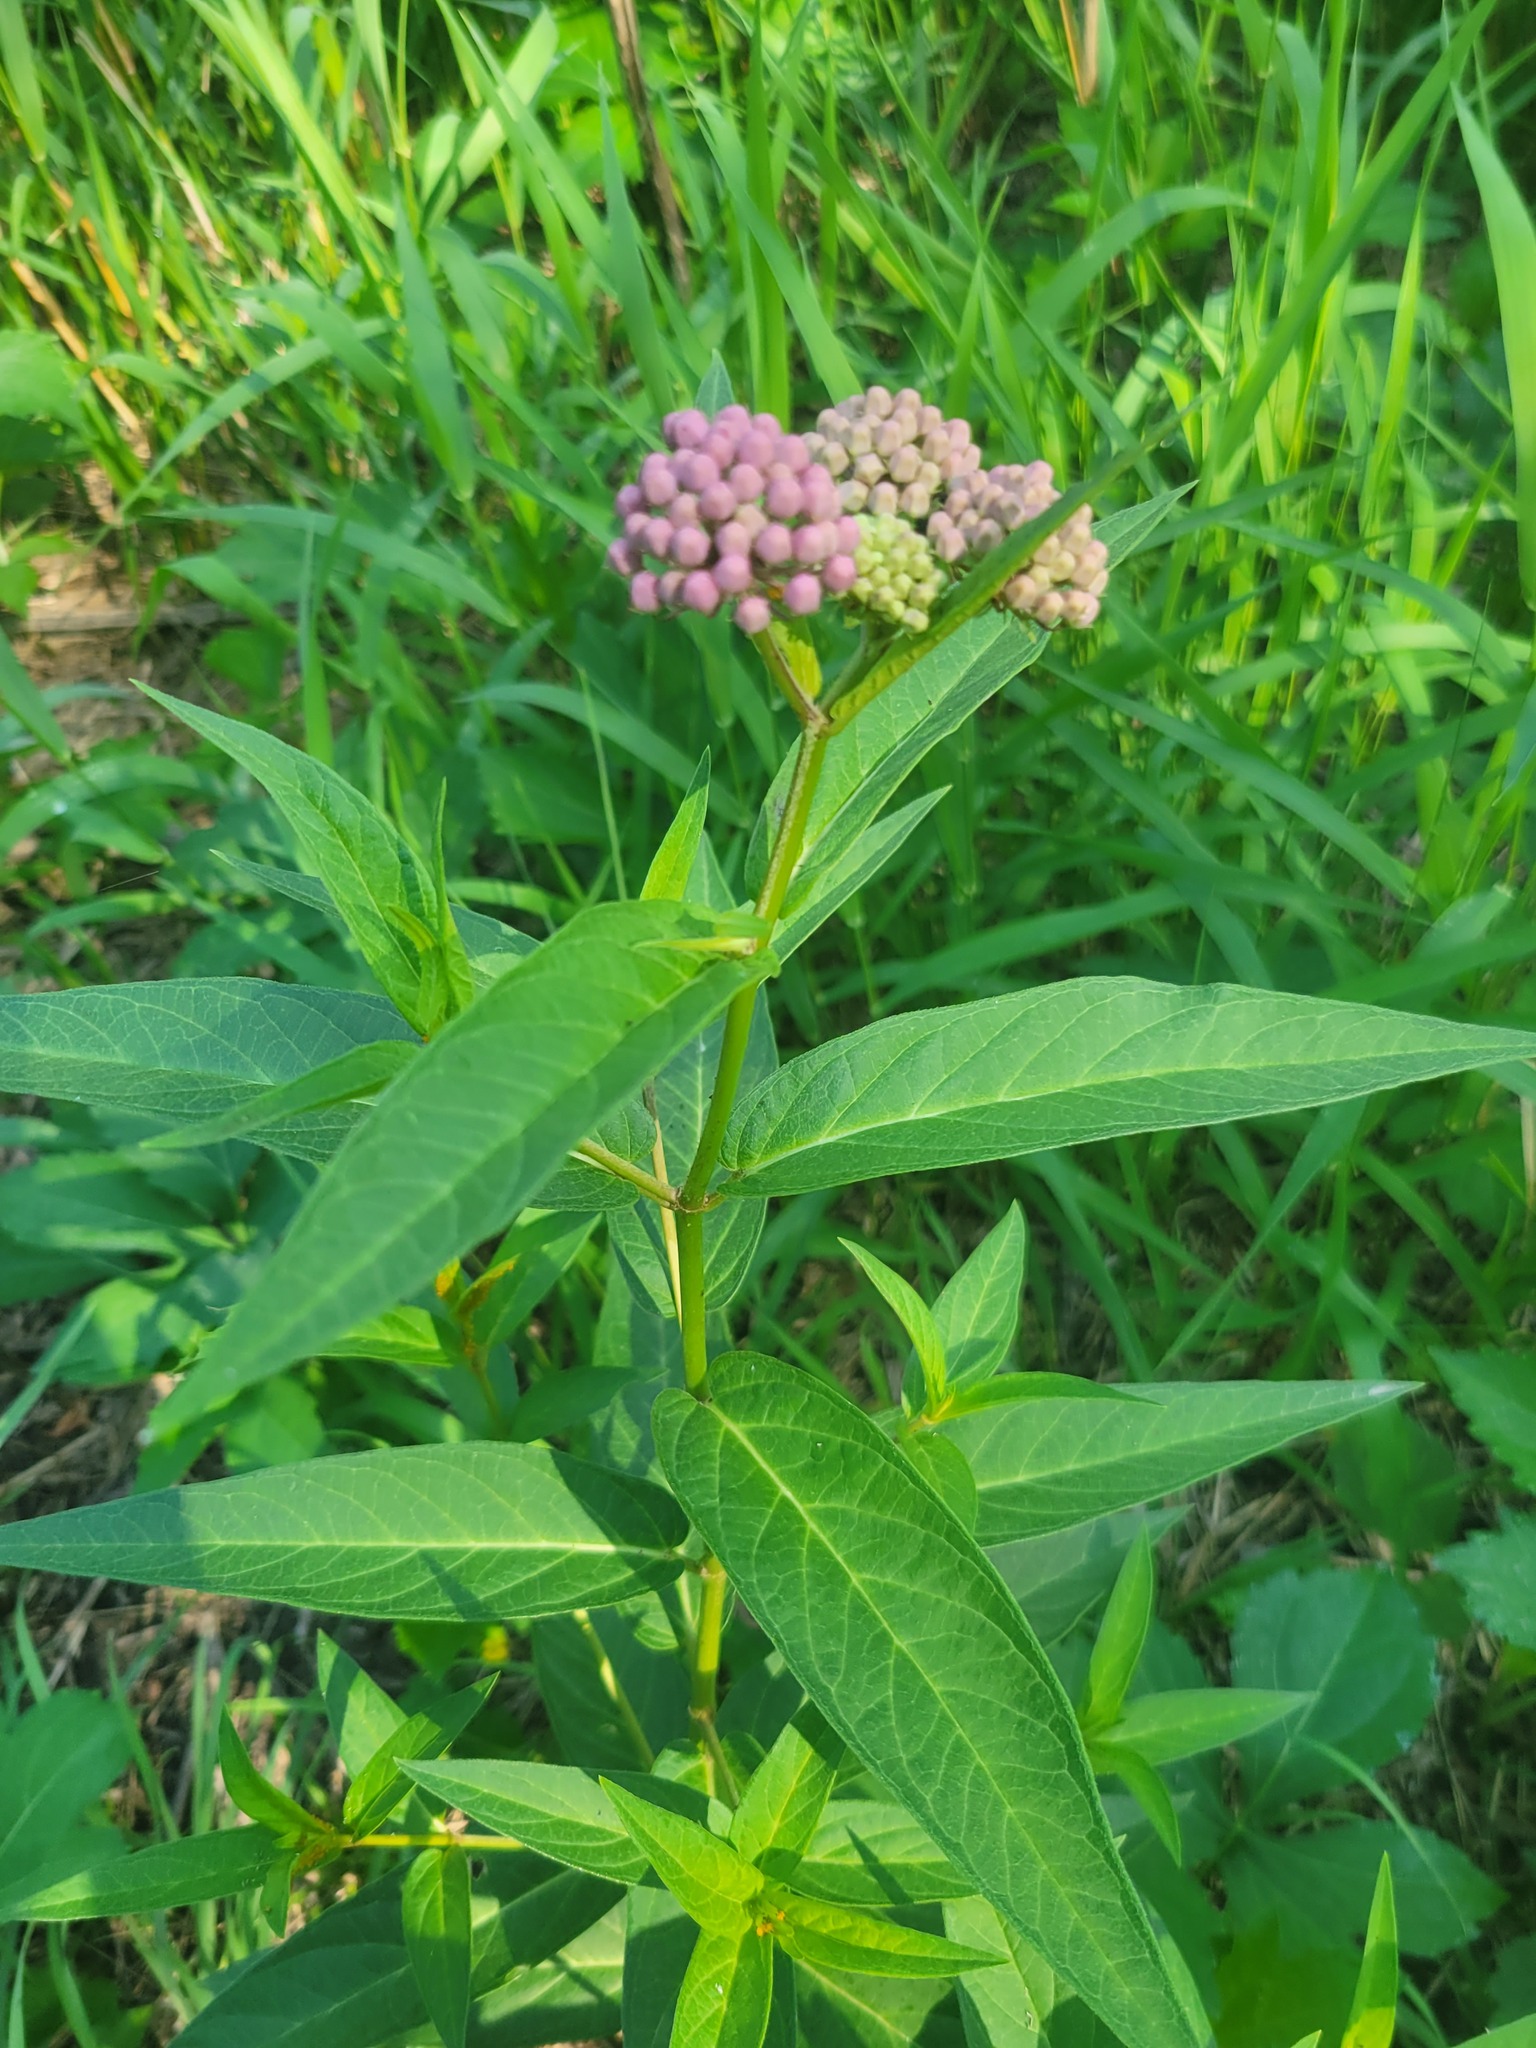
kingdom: Plantae
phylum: Tracheophyta
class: Magnoliopsida
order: Gentianales
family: Apocynaceae
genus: Asclepias
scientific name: Asclepias incarnata
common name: Swamp milkweed
